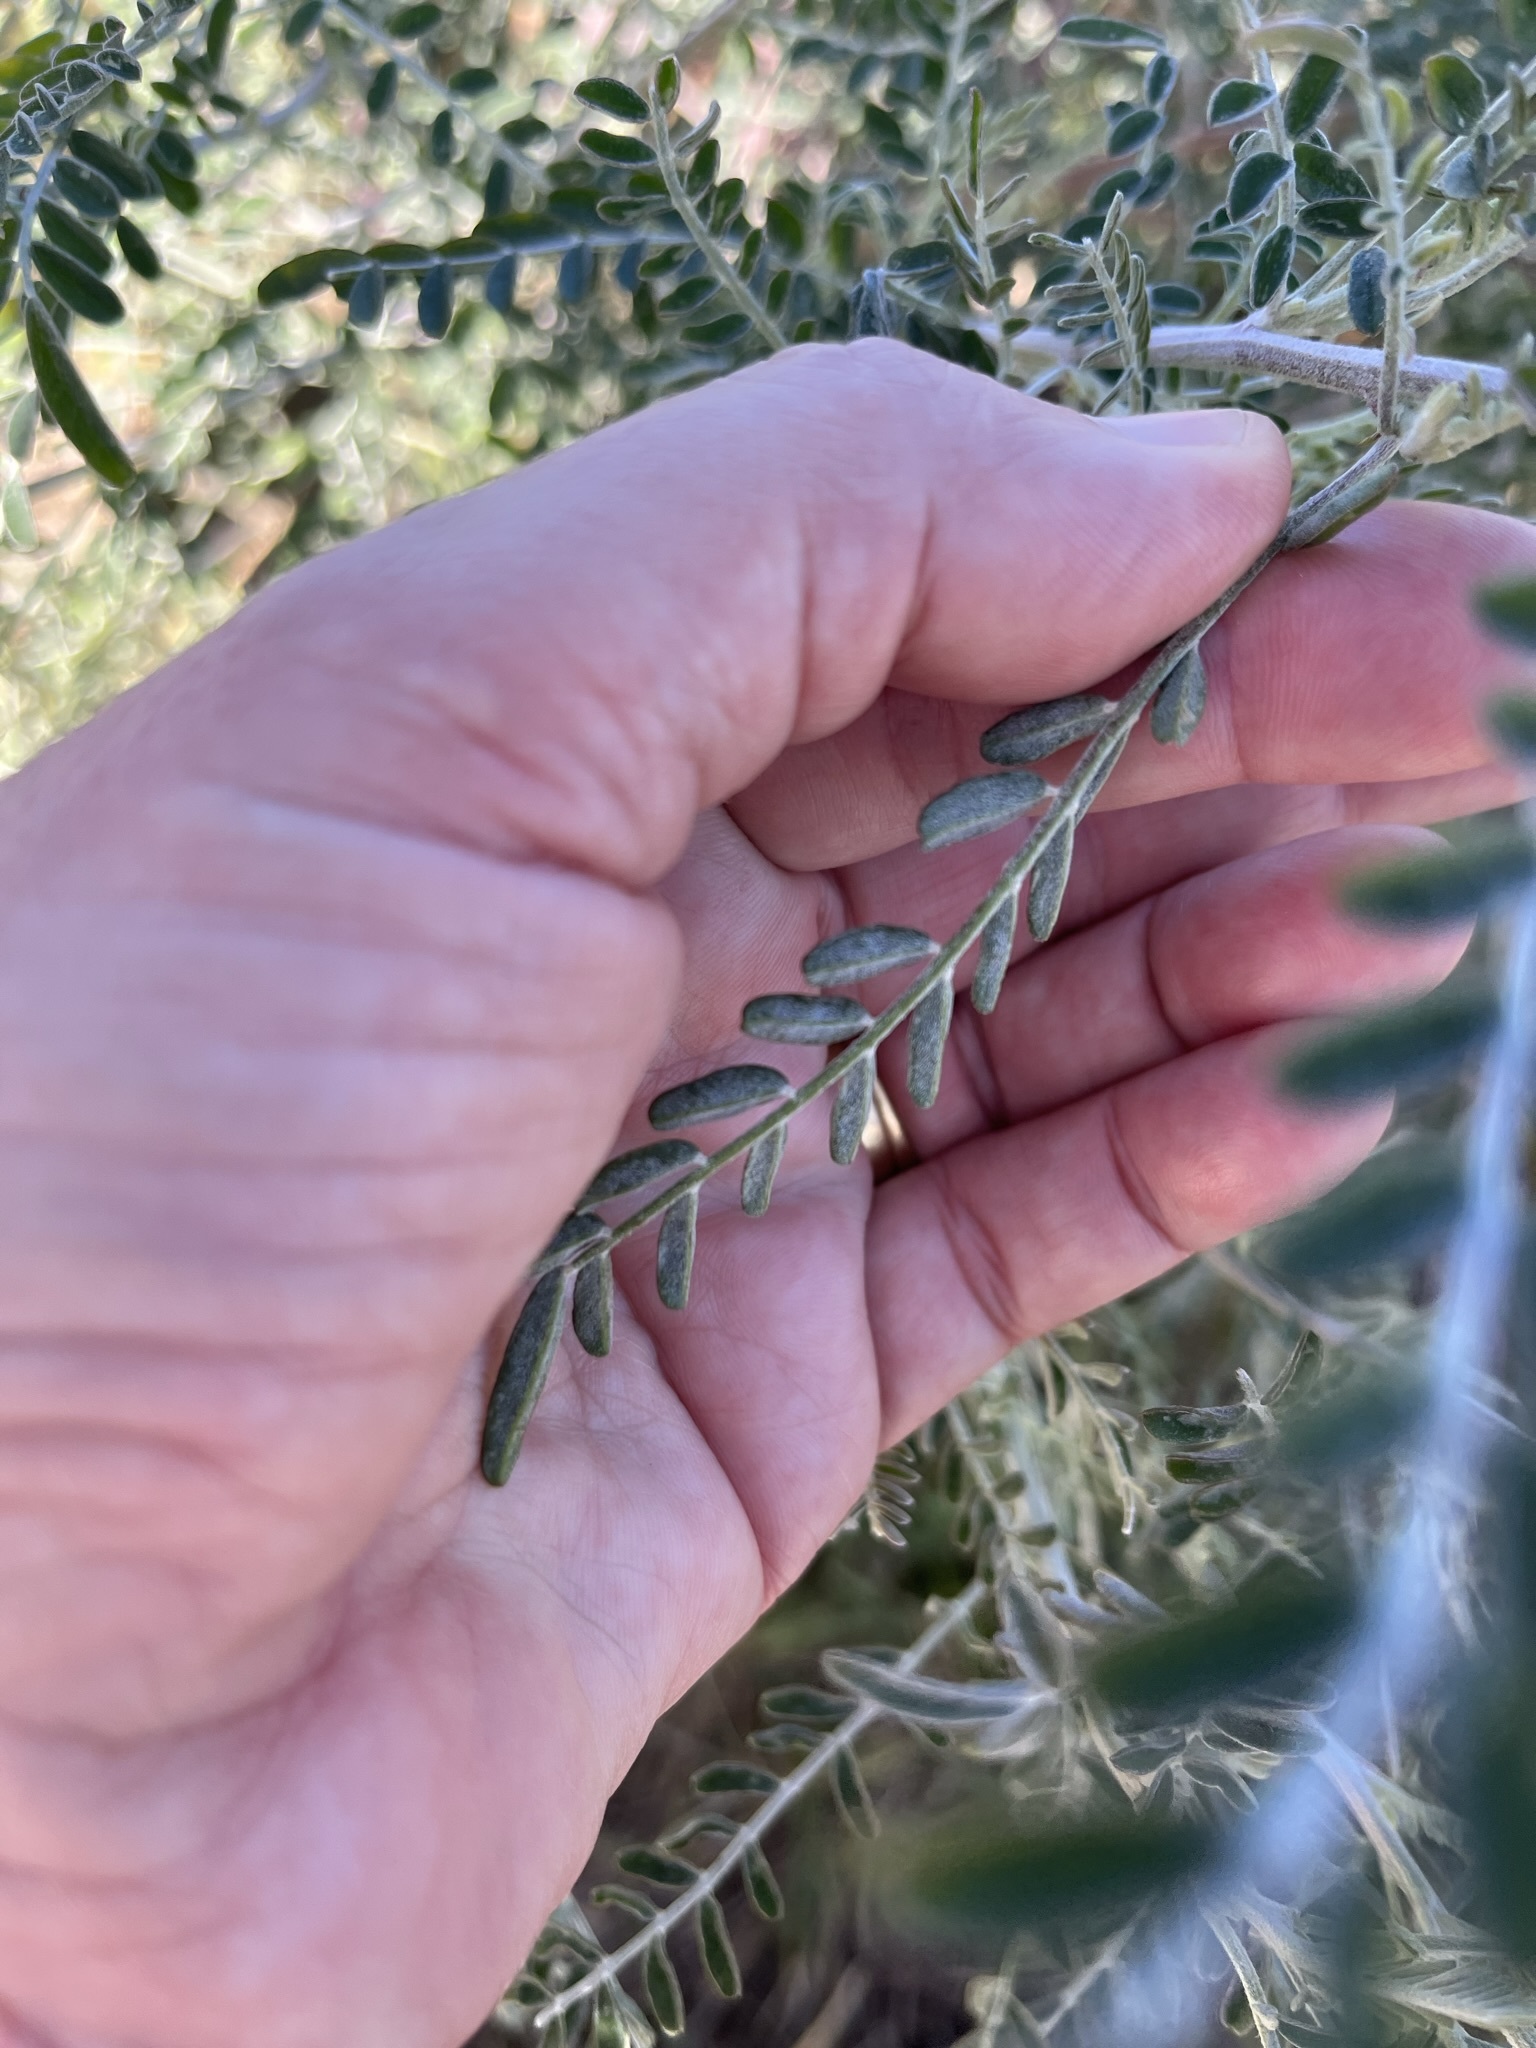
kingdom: Plantae
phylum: Tracheophyta
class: Magnoliopsida
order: Fabales
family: Fabaceae
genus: Lessertia
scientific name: Lessertia frutescens
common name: Balloon-pea
